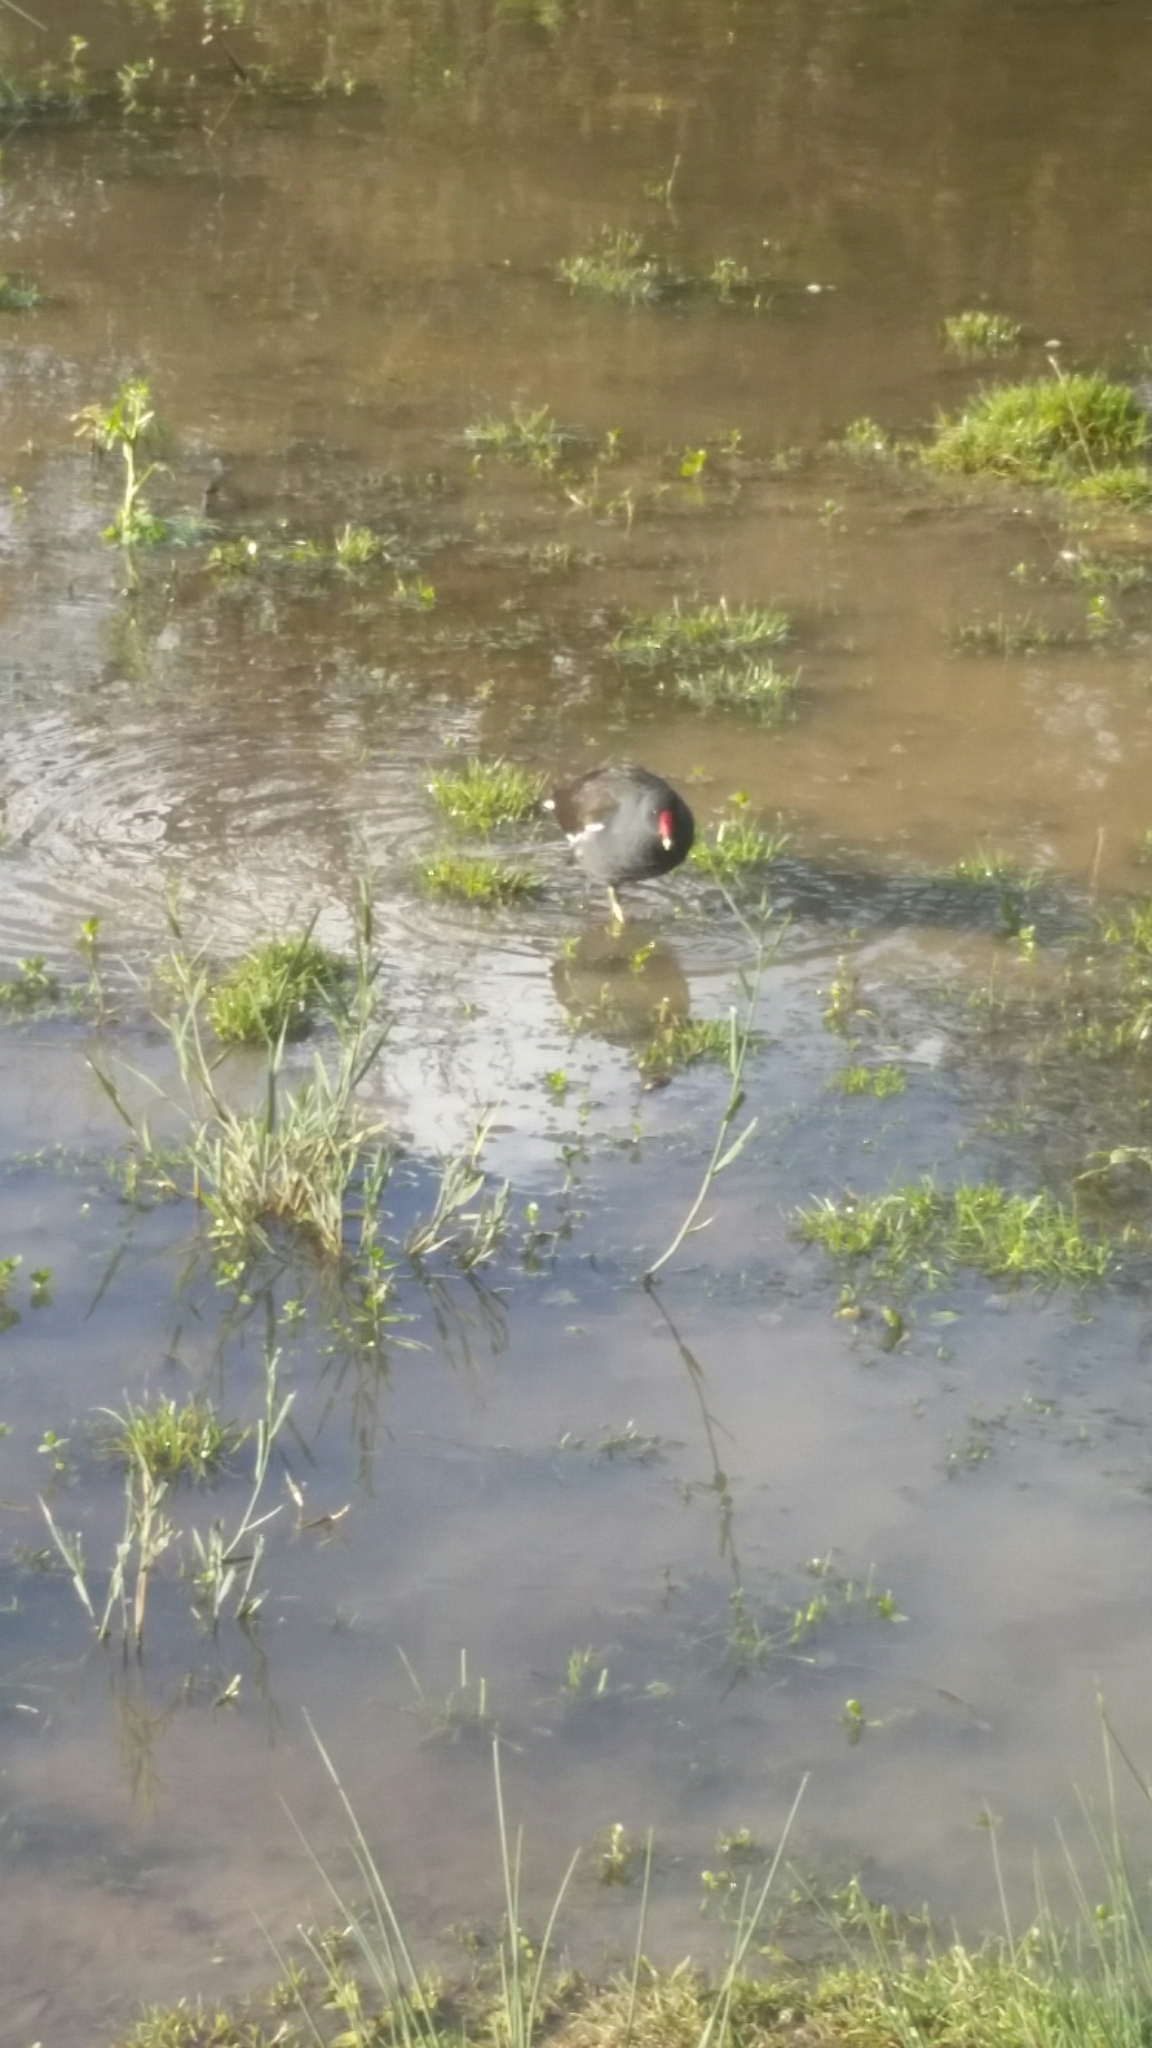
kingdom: Animalia
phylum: Chordata
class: Aves
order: Gruiformes
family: Rallidae
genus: Gallinula
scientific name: Gallinula chloropus
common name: Common moorhen
